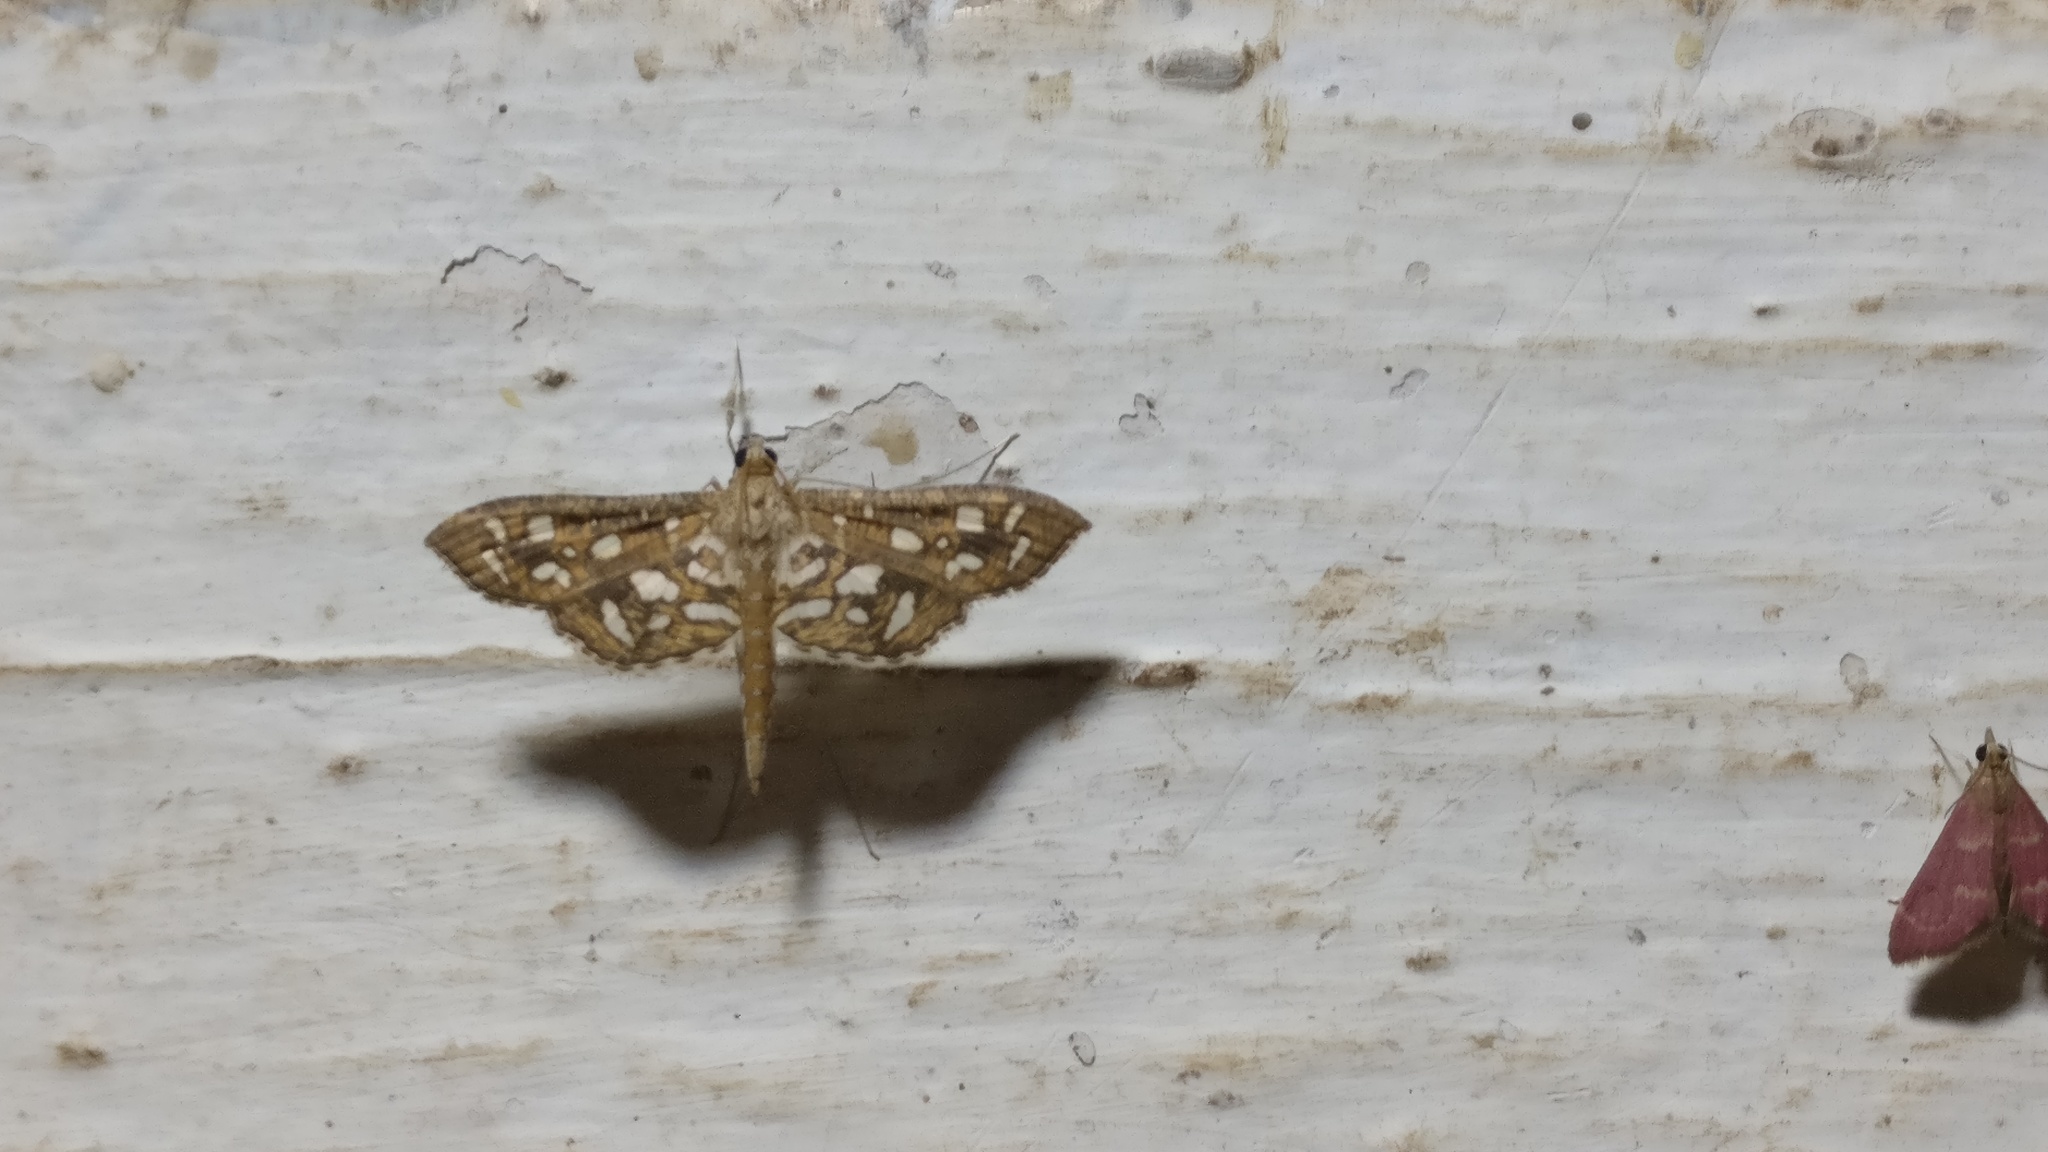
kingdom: Animalia
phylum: Arthropoda
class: Insecta
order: Lepidoptera
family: Crambidae
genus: Nausinoe
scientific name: Nausinoe geometralis
